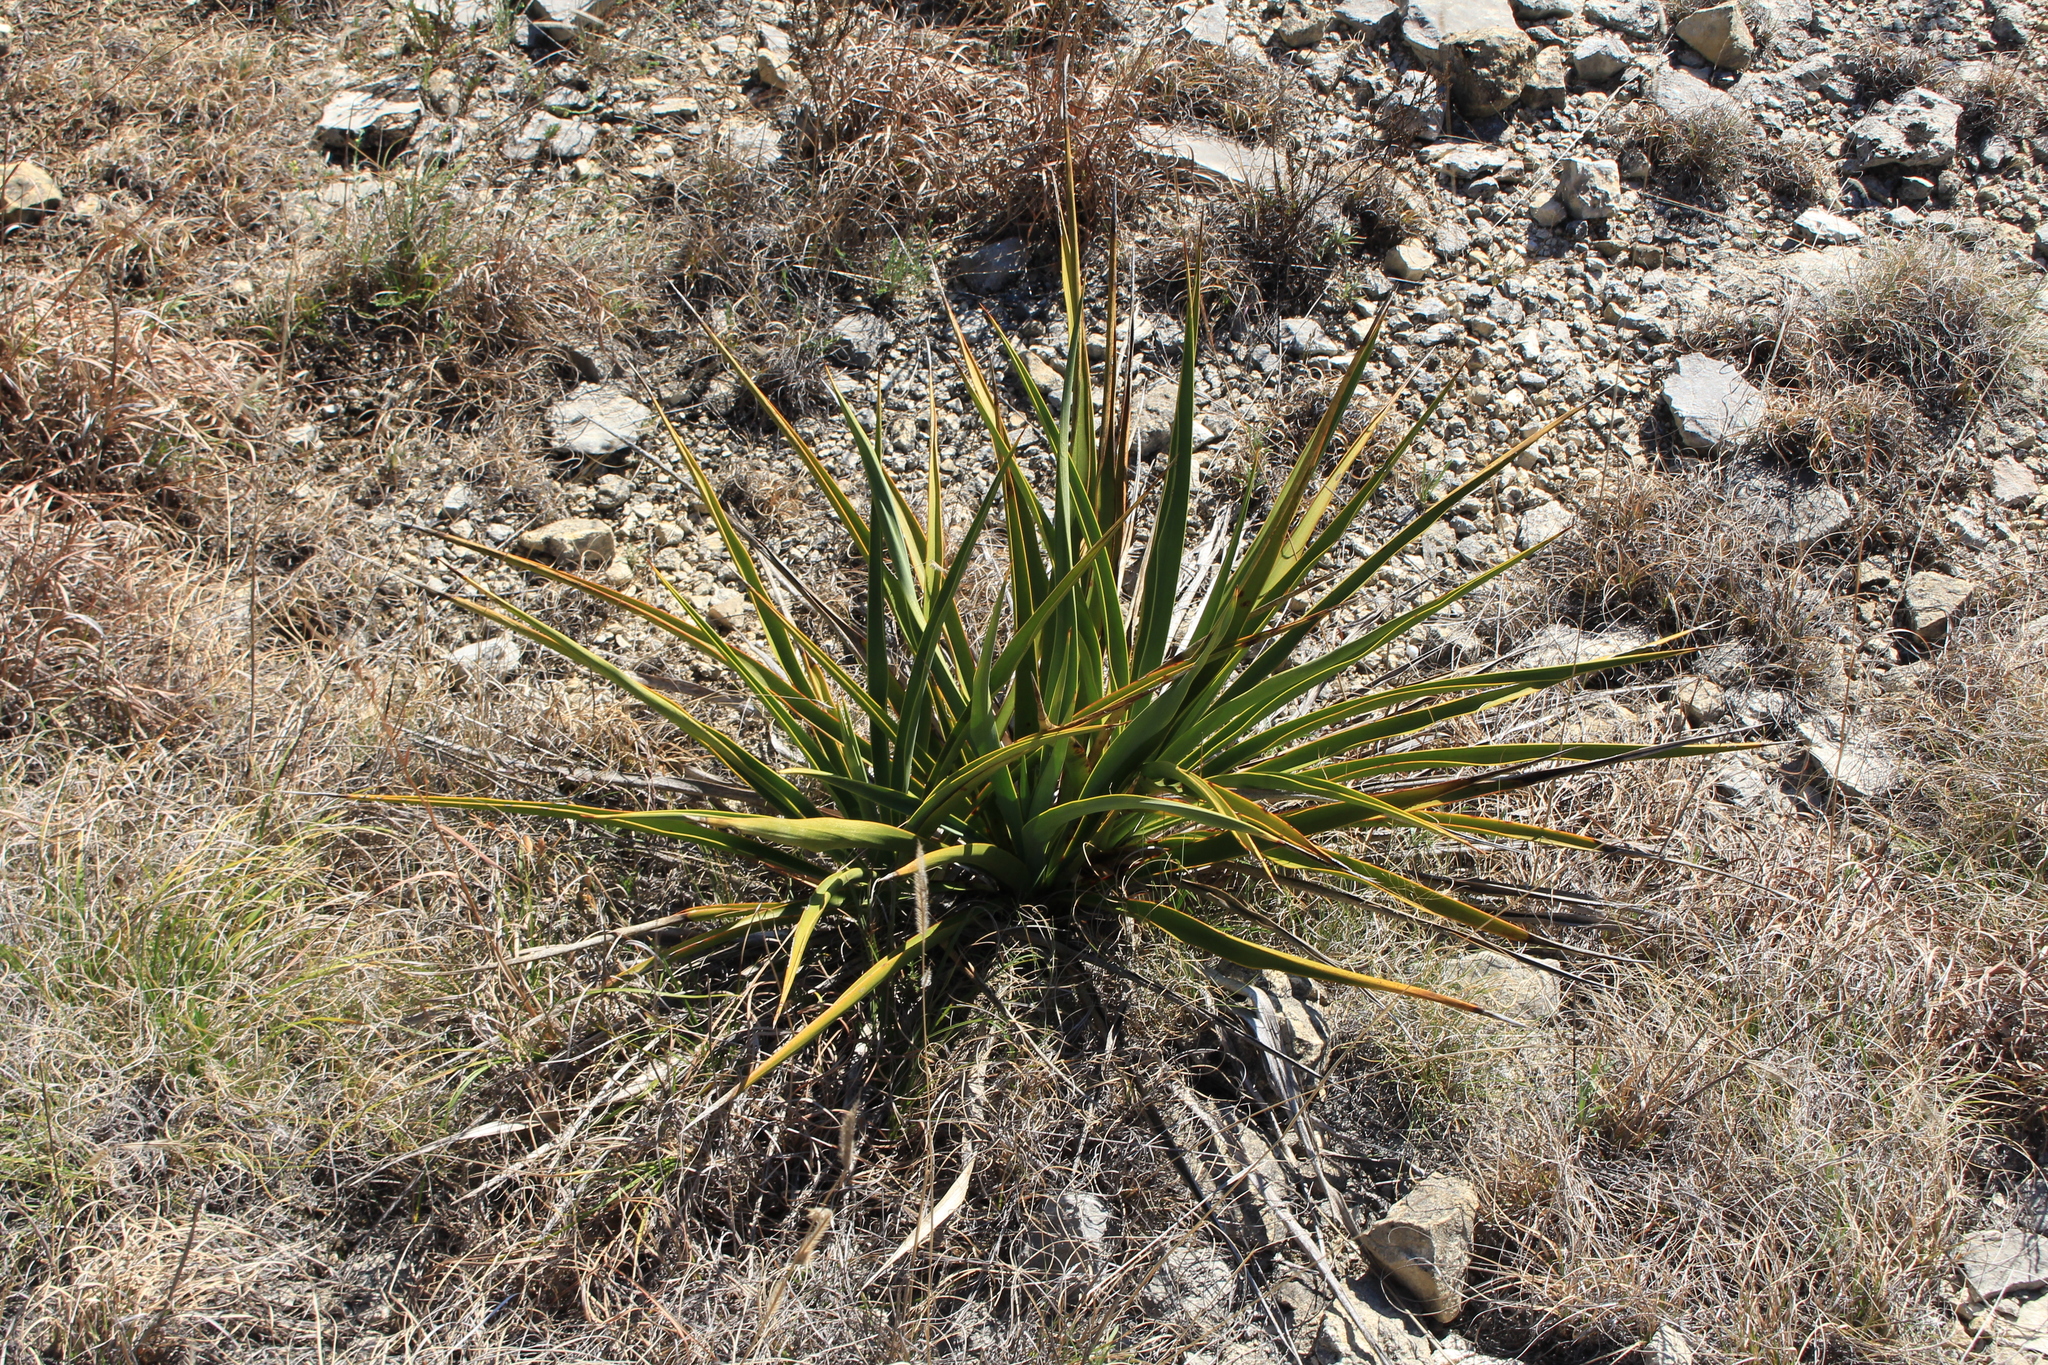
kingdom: Plantae
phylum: Tracheophyta
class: Liliopsida
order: Asparagales
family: Asparagaceae
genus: Yucca
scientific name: Yucca rupicola
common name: Twisted-leaf spanish-dagger
